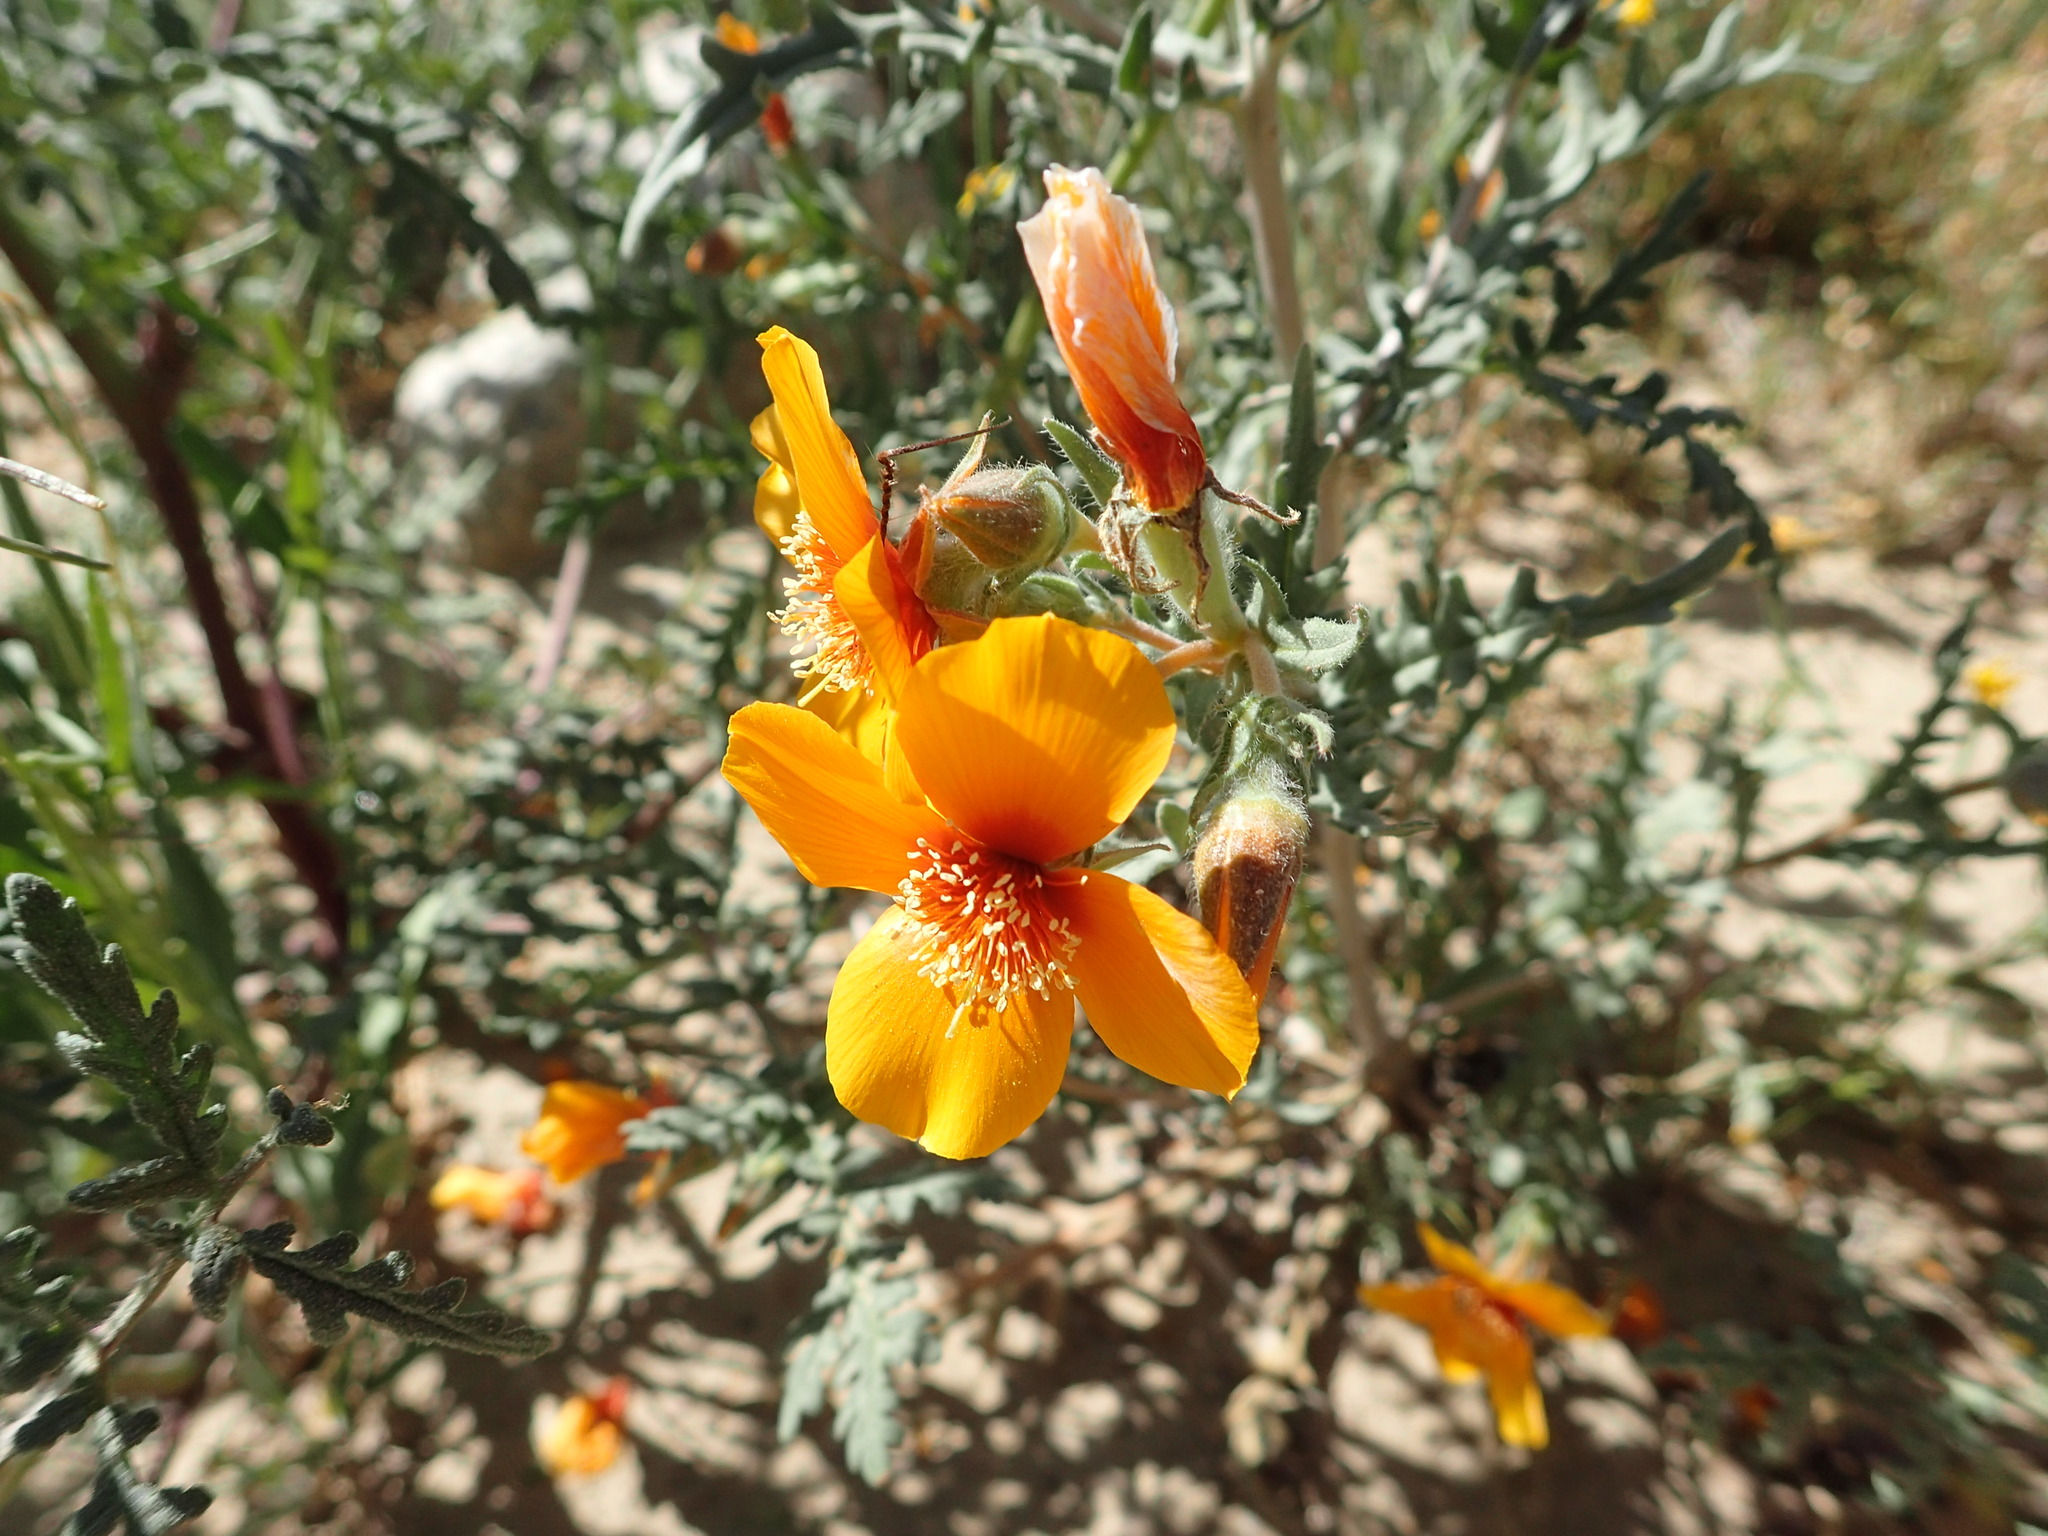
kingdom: Plantae
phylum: Tracheophyta
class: Magnoliopsida
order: Cornales
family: Loasaceae
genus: Mentzelia
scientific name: Mentzelia pectinata
